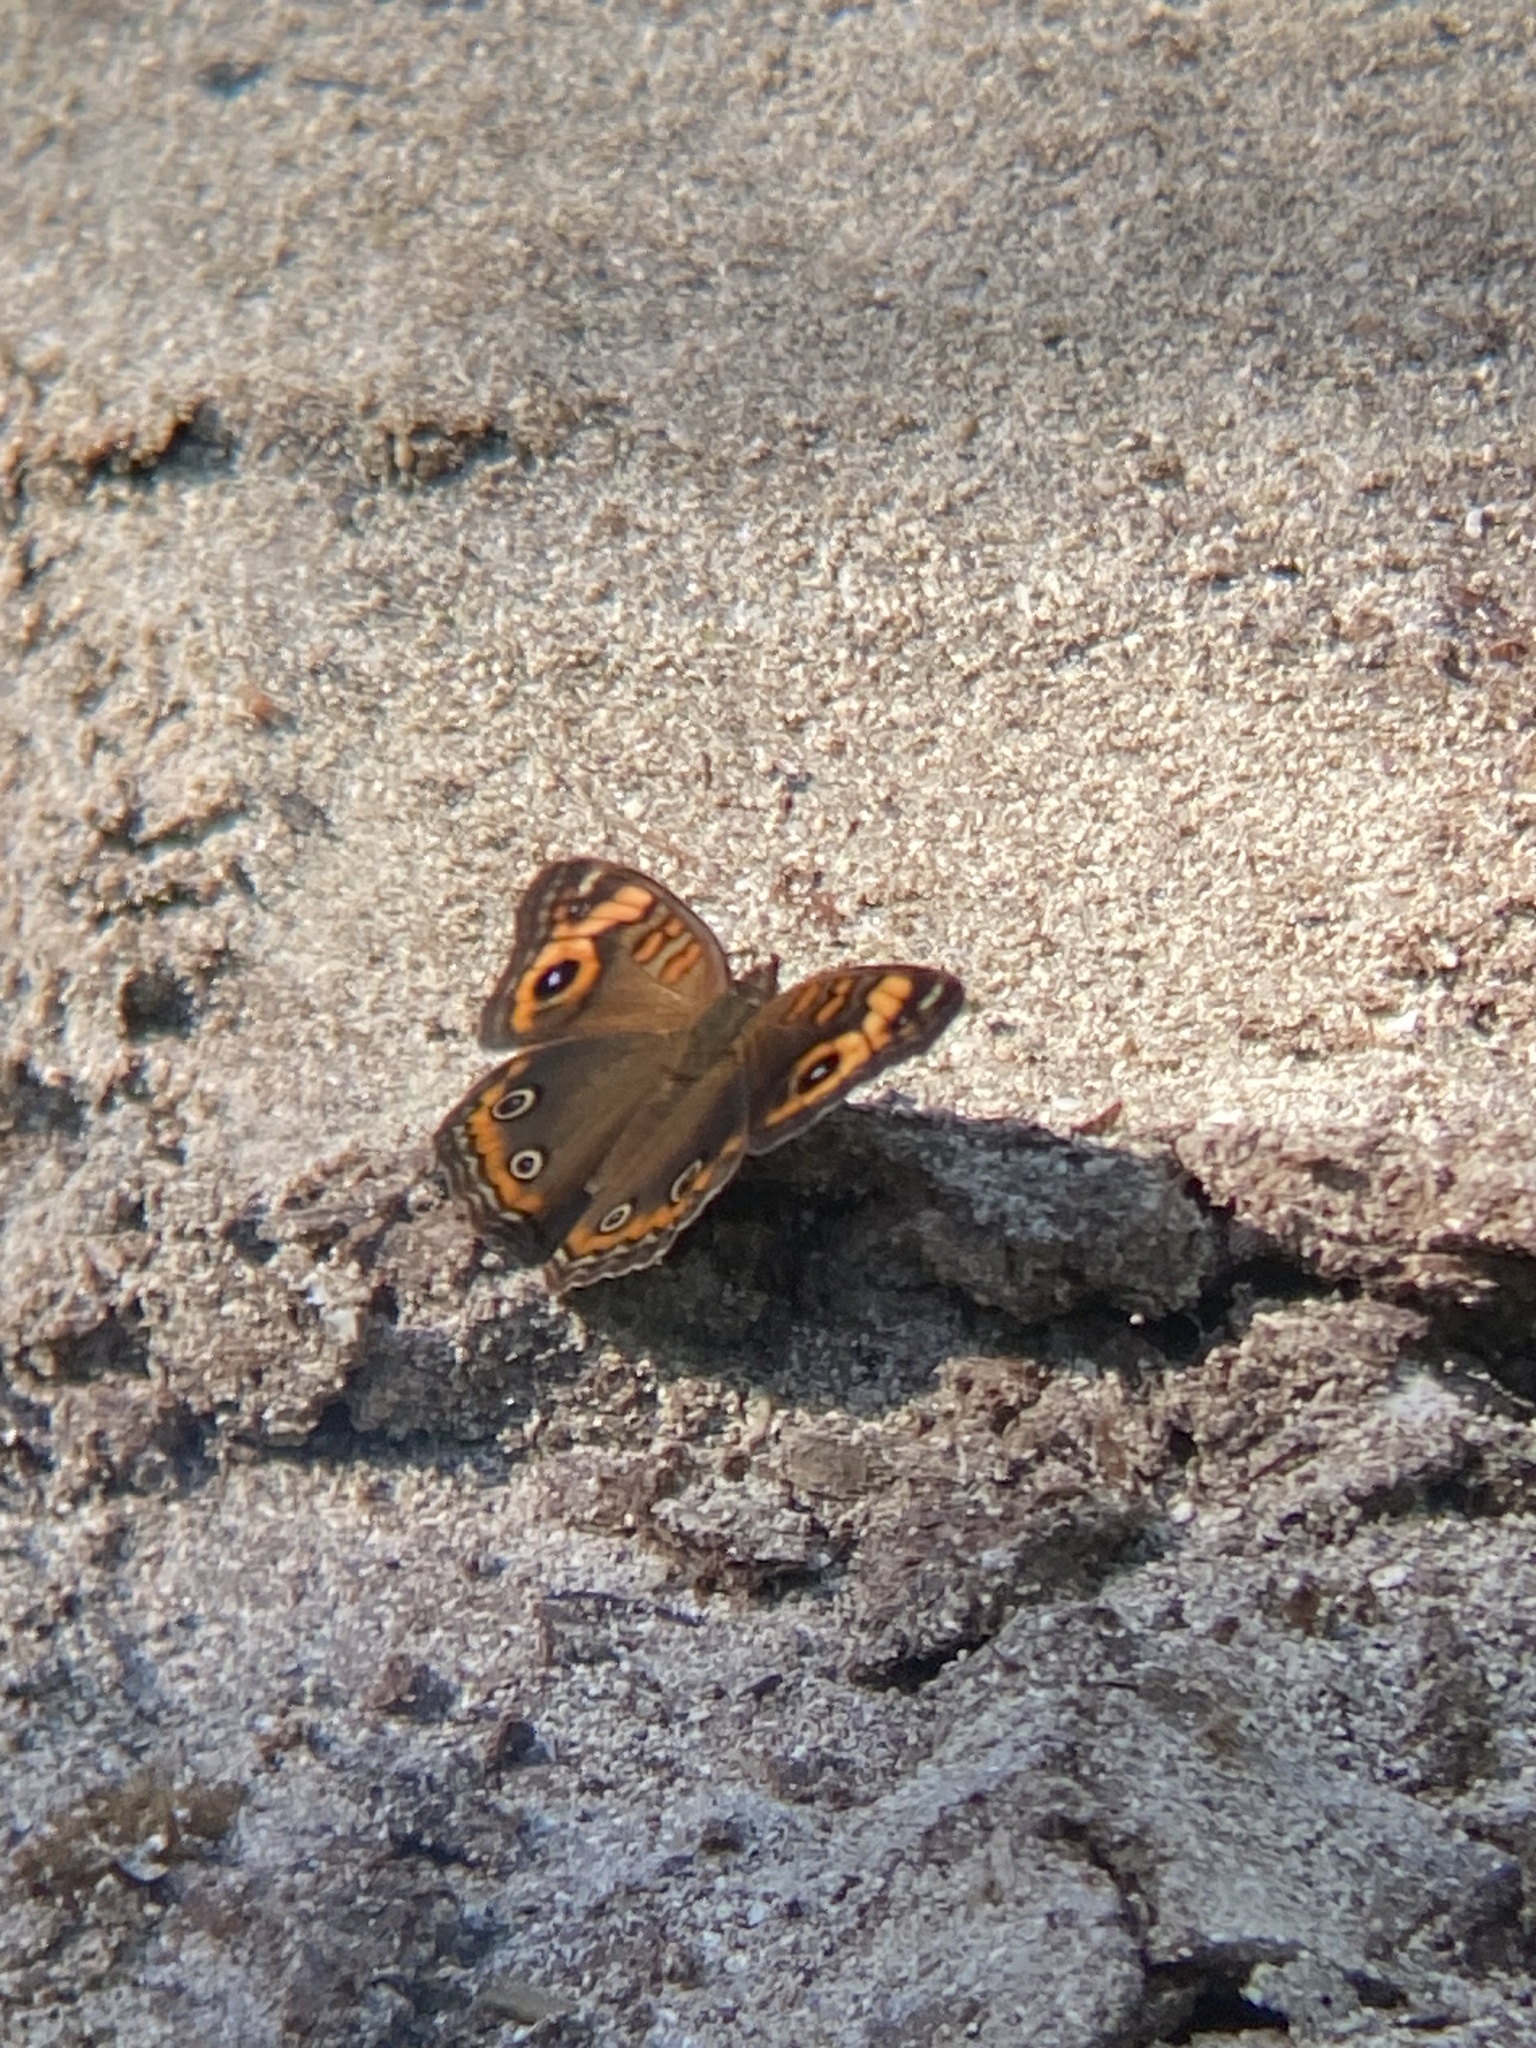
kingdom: Animalia
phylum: Arthropoda
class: Insecta
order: Lepidoptera
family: Nymphalidae
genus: Junonia
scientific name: Junonia neildi
